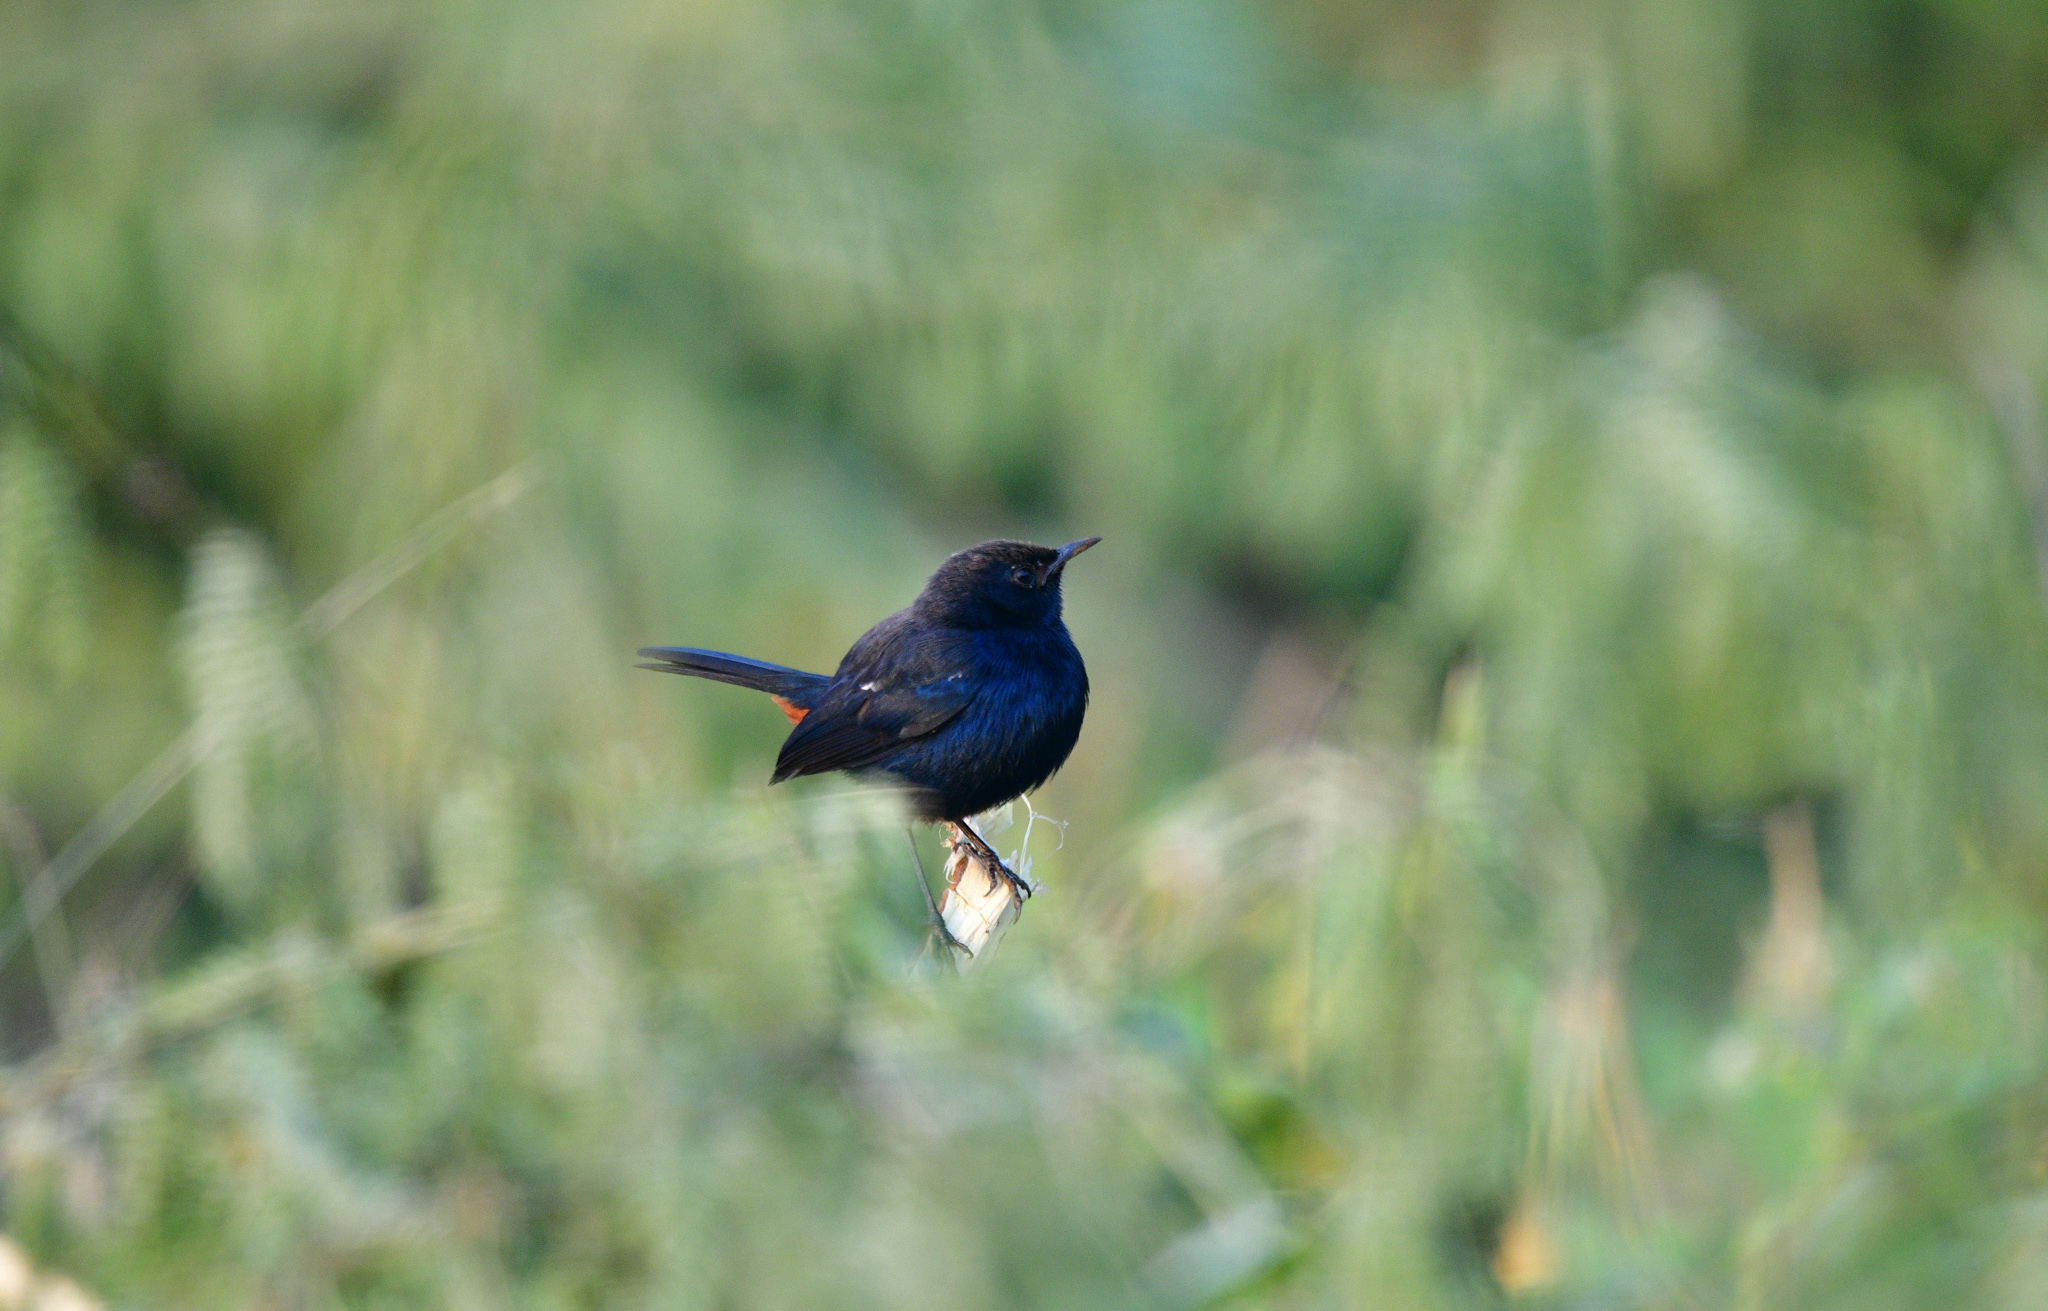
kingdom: Animalia
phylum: Chordata
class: Aves
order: Passeriformes
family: Muscicapidae
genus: Saxicoloides
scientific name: Saxicoloides fulicatus
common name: Indian robin
